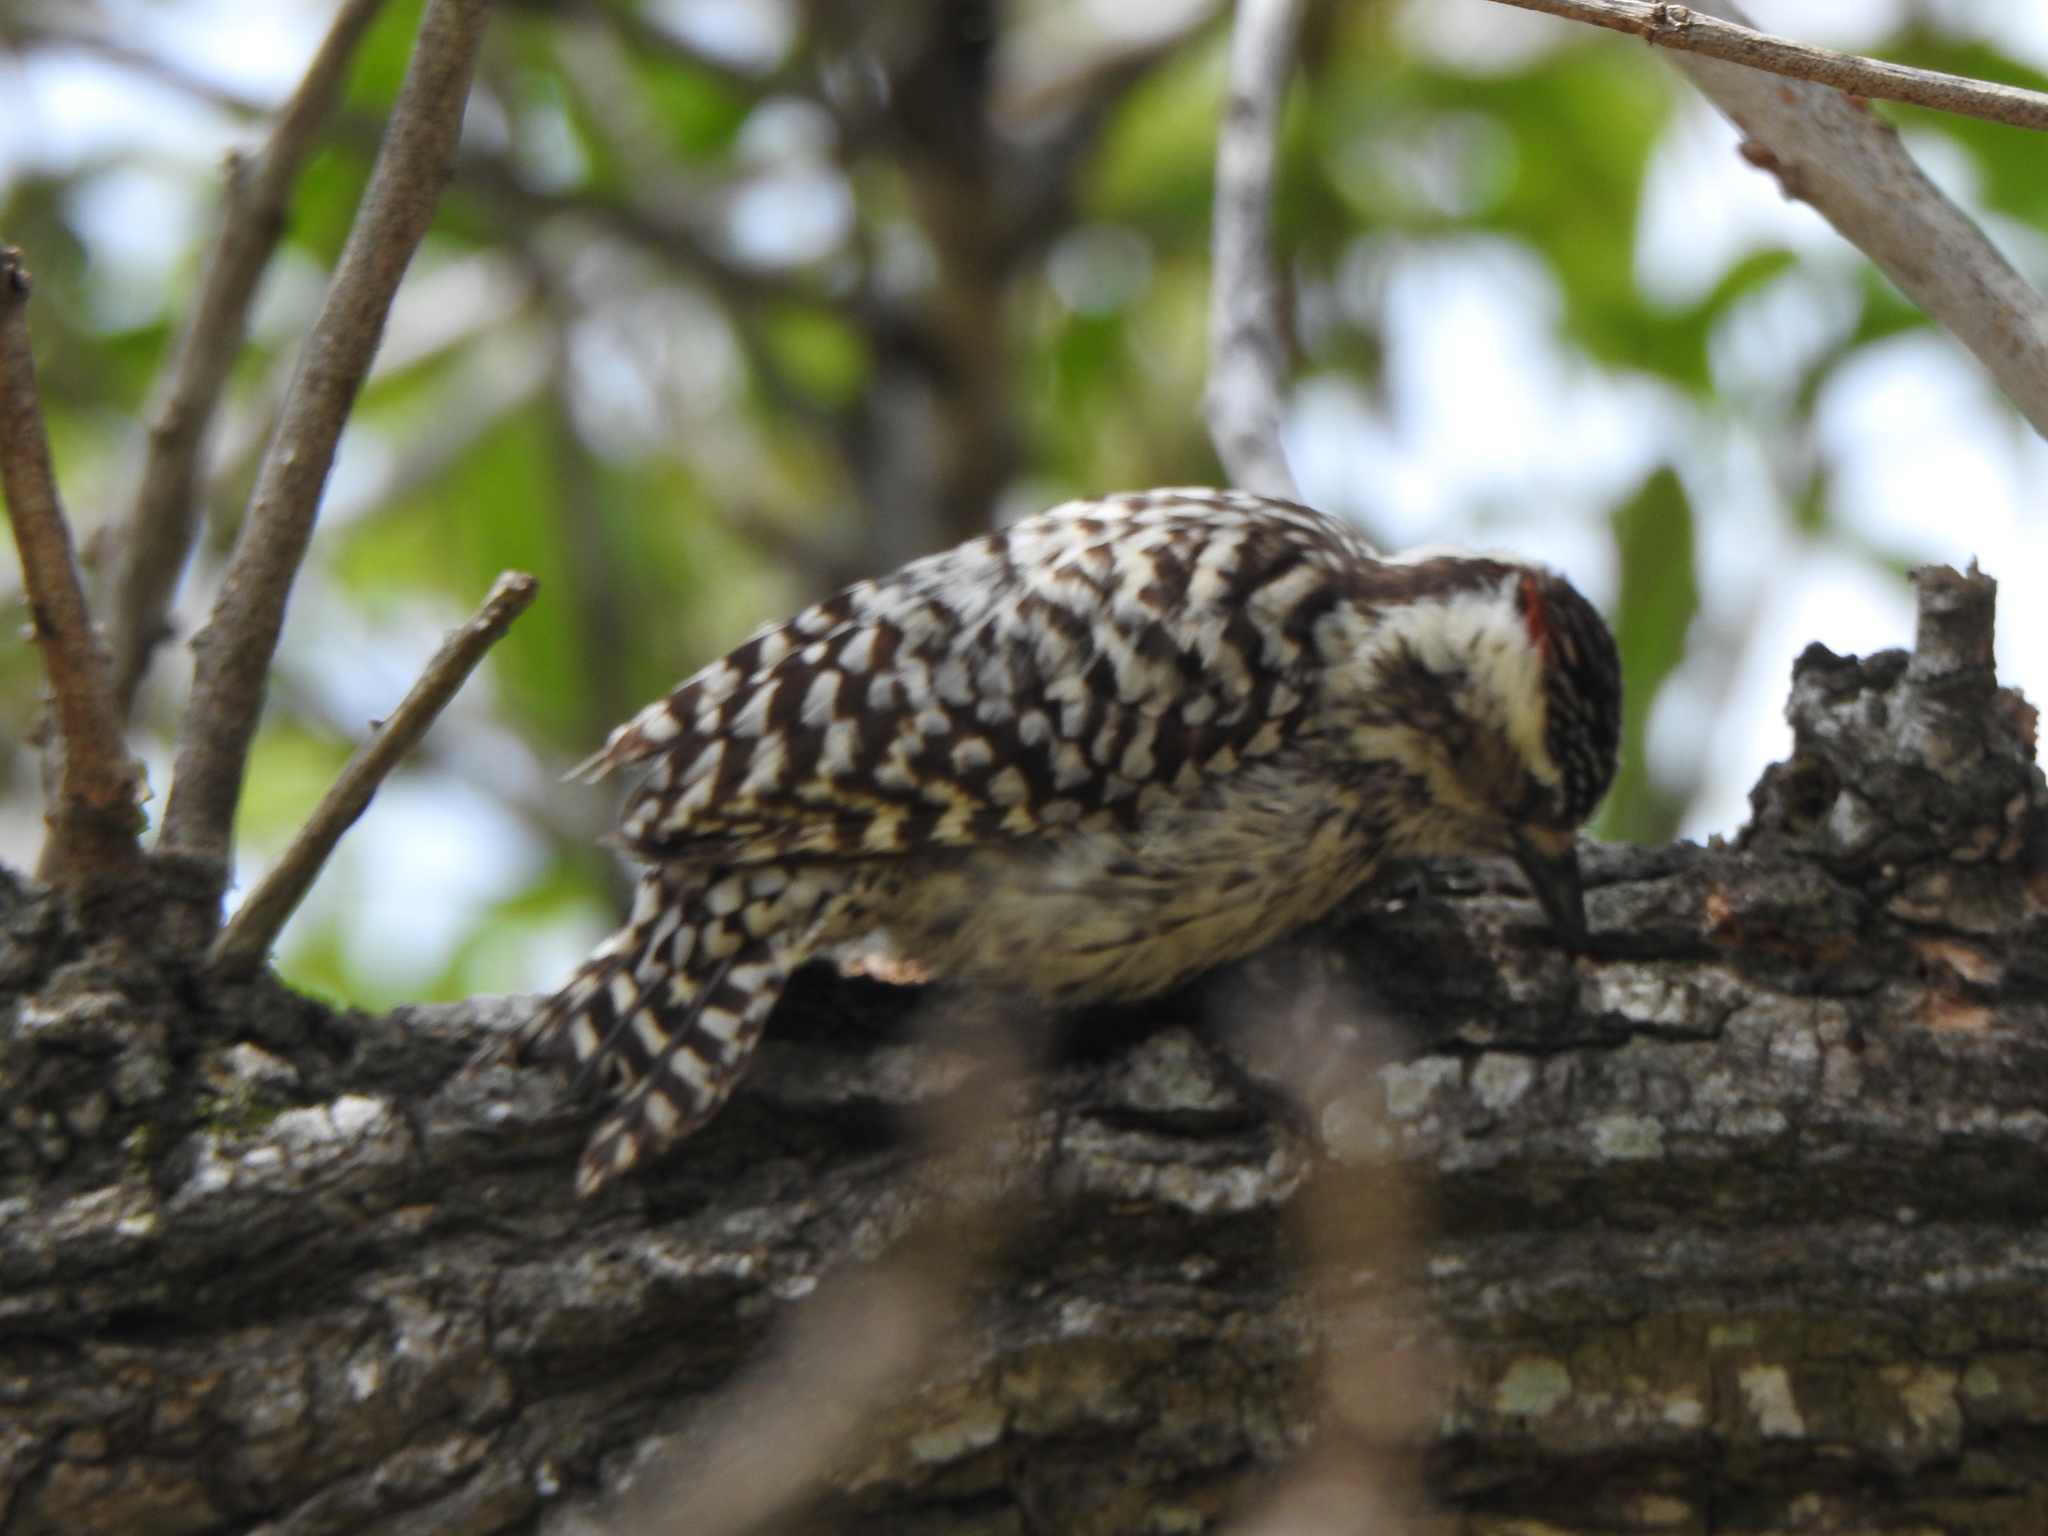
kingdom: Animalia
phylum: Chordata
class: Aves
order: Piciformes
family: Picidae
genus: Veniliornis
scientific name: Veniliornis mixtus
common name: Checkered woodpecker
